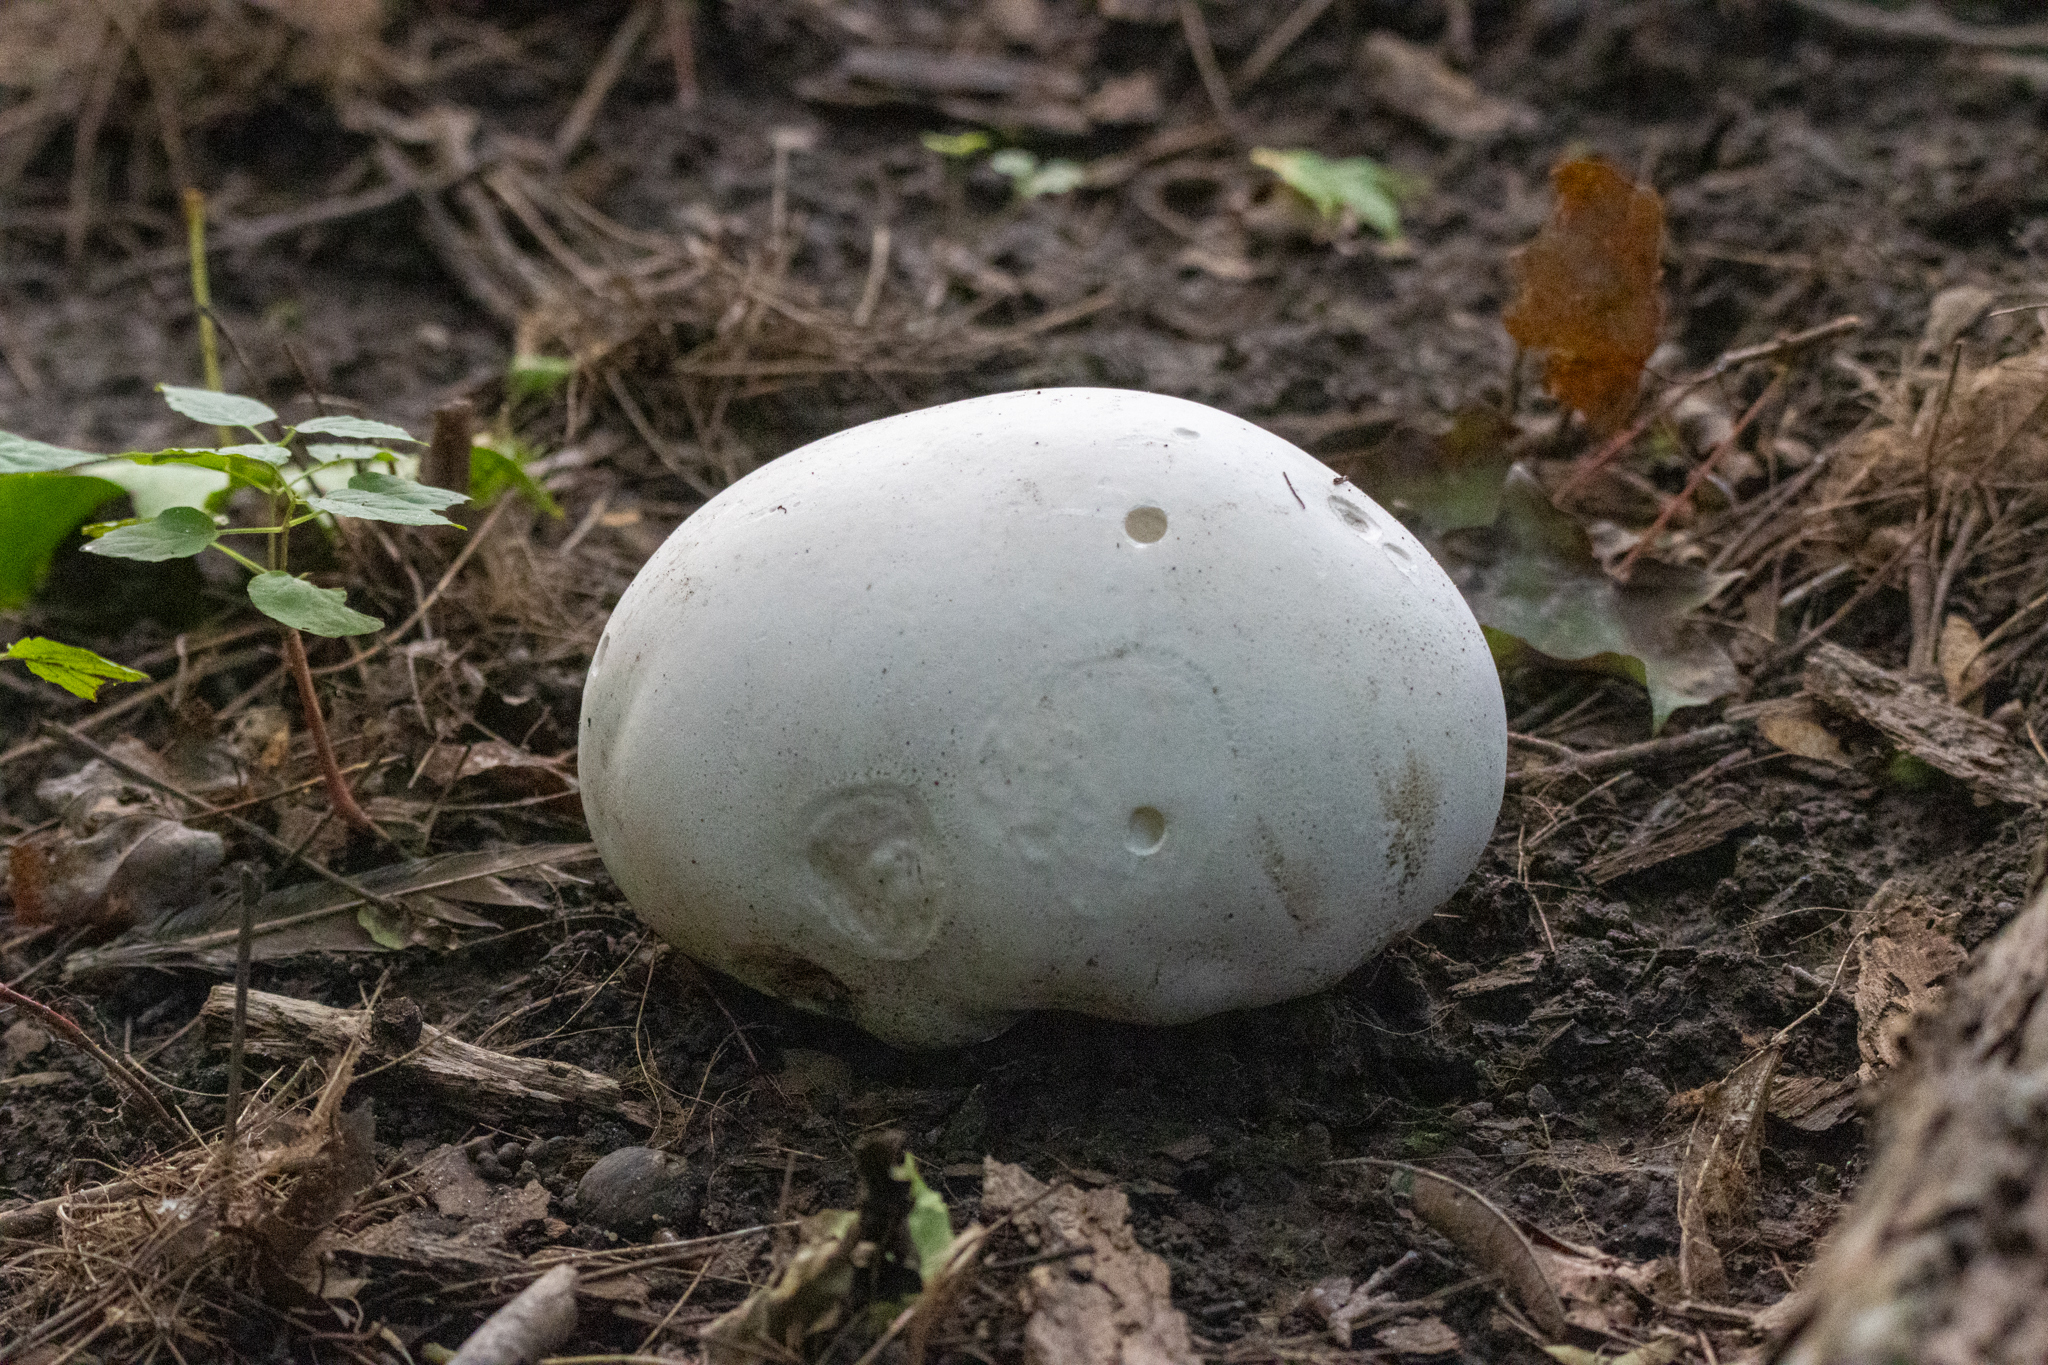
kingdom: Fungi
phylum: Basidiomycota
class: Agaricomycetes
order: Agaricales
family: Lycoperdaceae
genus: Calvatia
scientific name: Calvatia gigantea
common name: Giant puffball
